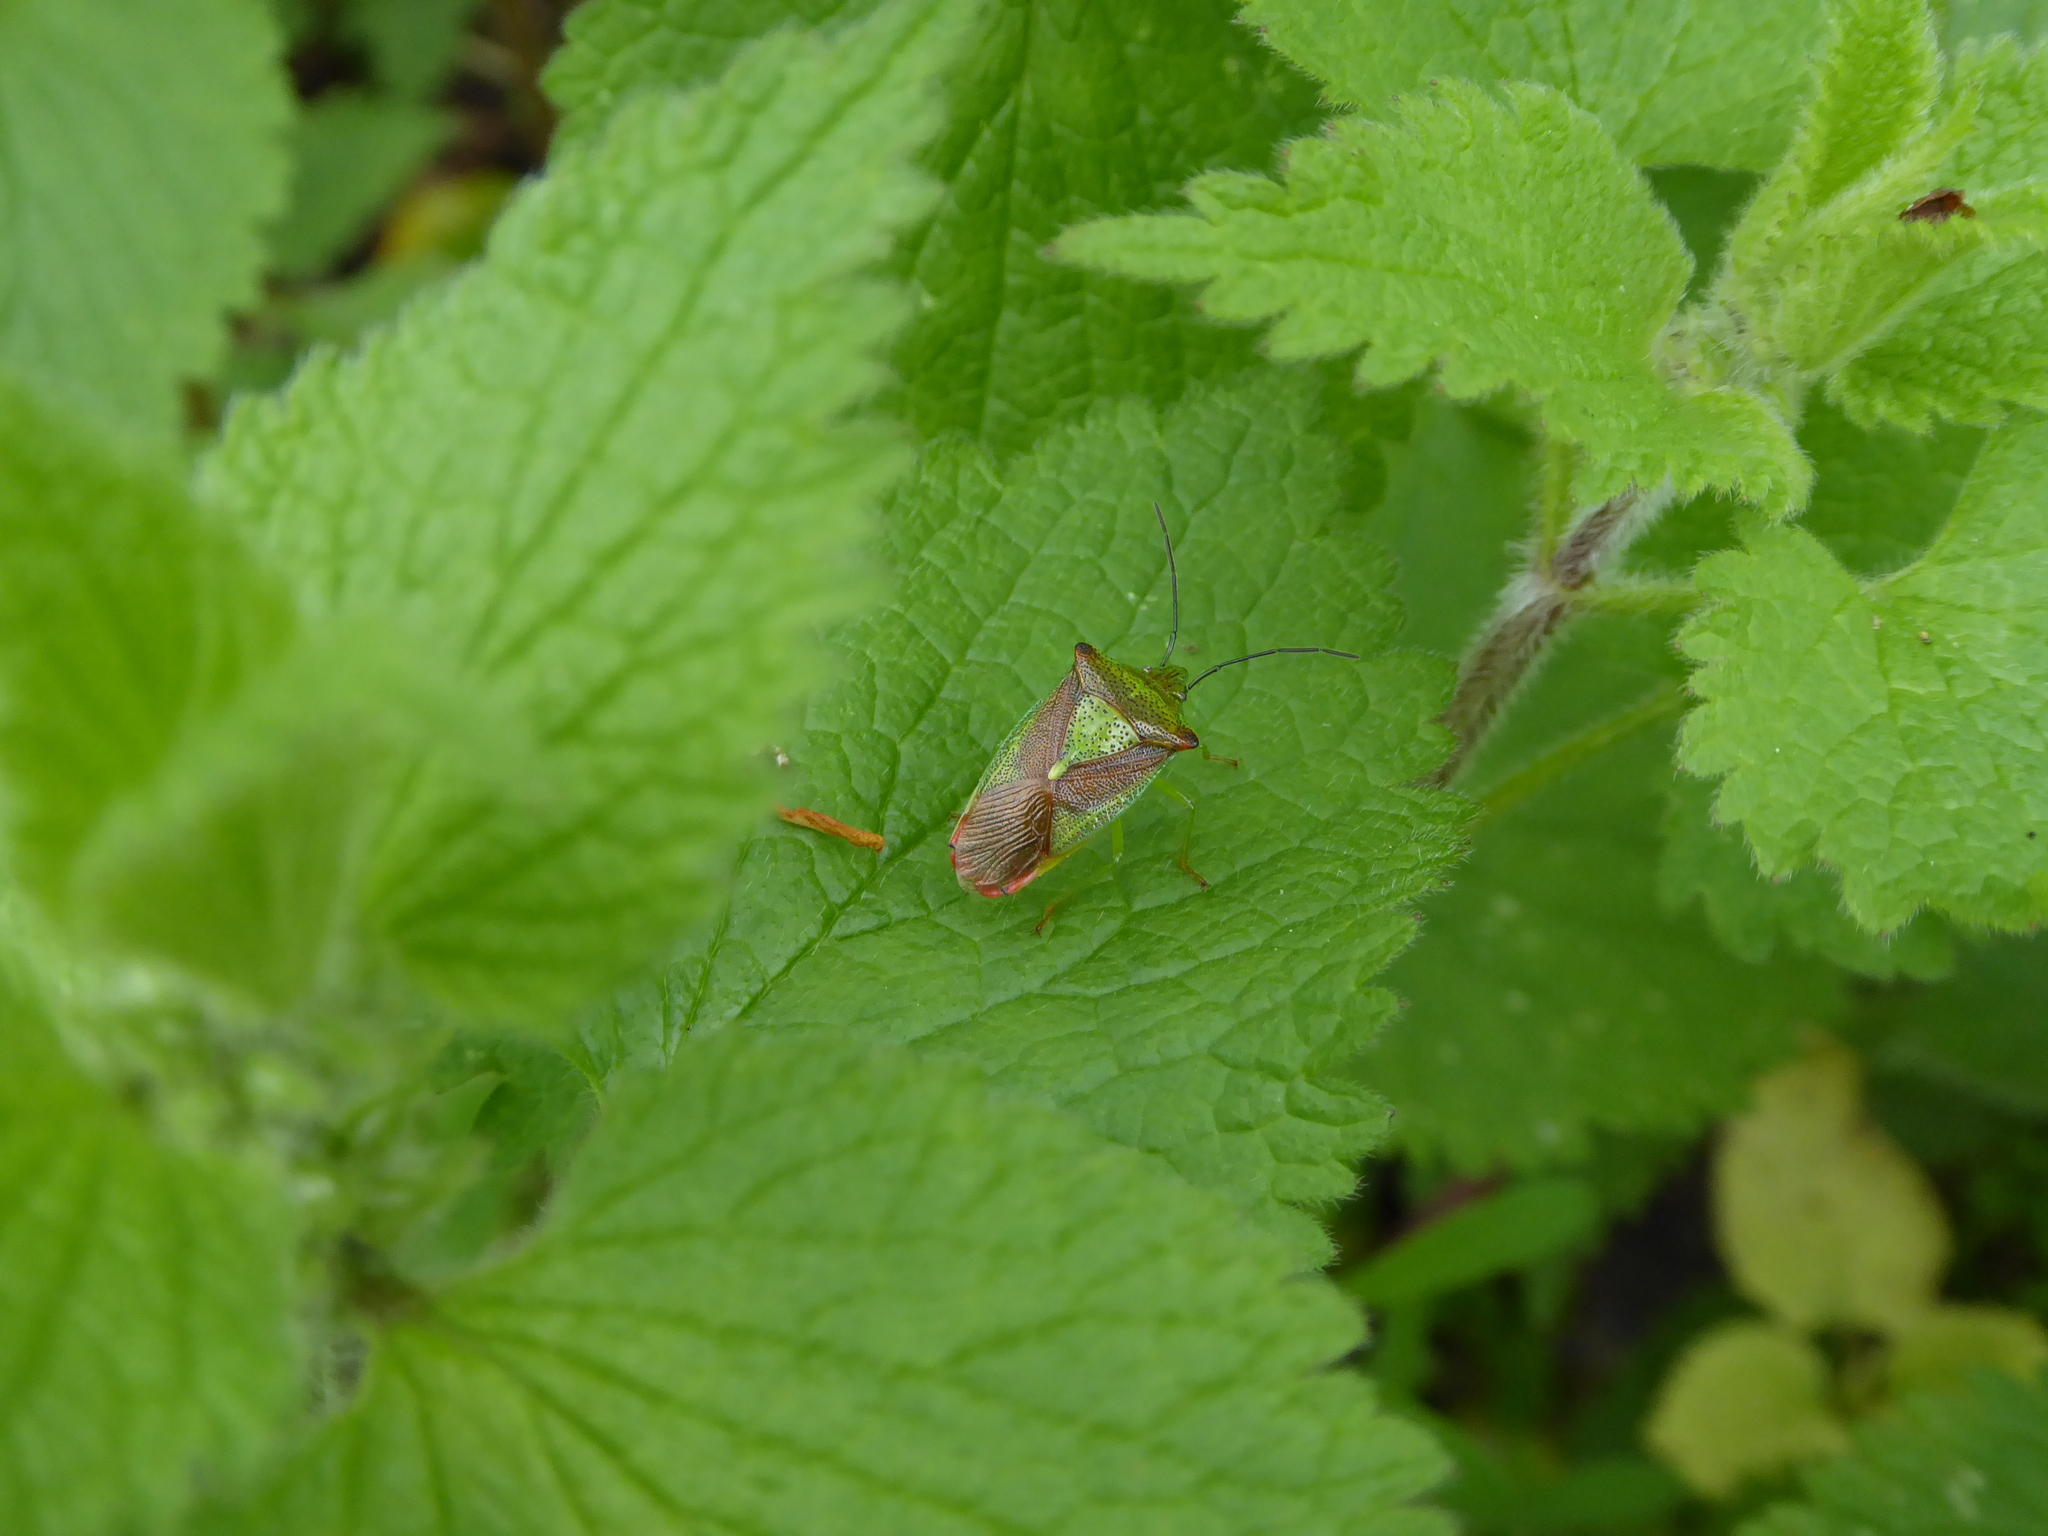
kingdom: Animalia
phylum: Arthropoda
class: Insecta
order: Hemiptera
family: Acanthosomatidae
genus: Acanthosoma
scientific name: Acanthosoma haemorrhoidale
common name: Hawthorn shieldbug
